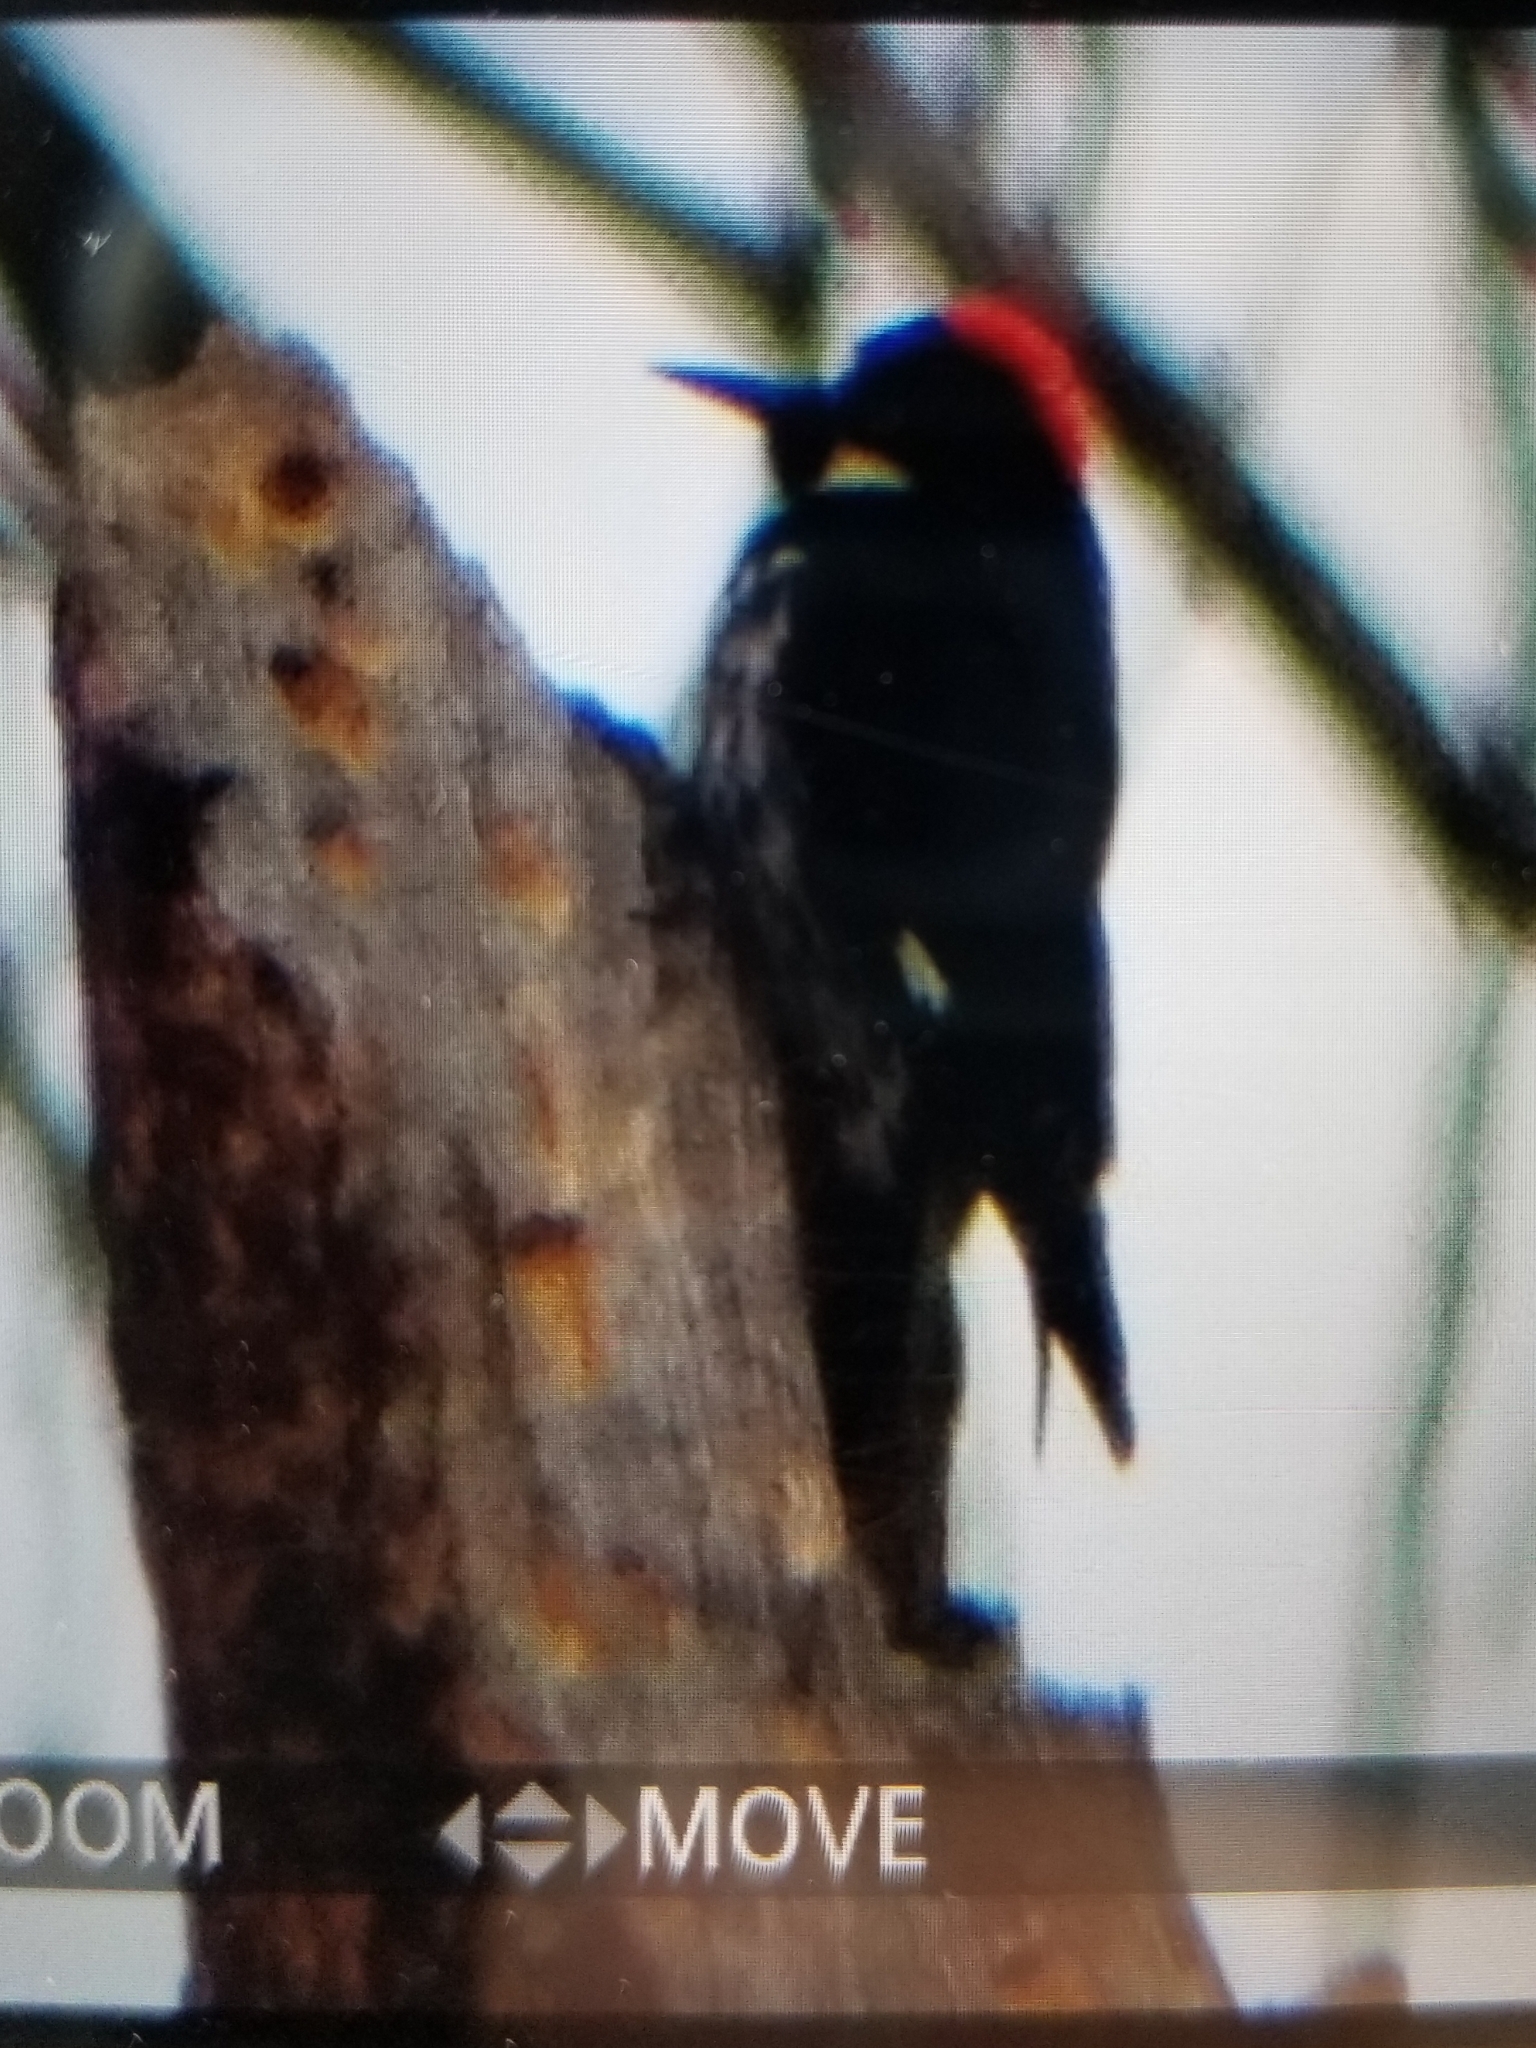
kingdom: Animalia
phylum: Chordata
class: Aves
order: Piciformes
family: Picidae
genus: Melanerpes
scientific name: Melanerpes formicivorus
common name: Acorn woodpecker
